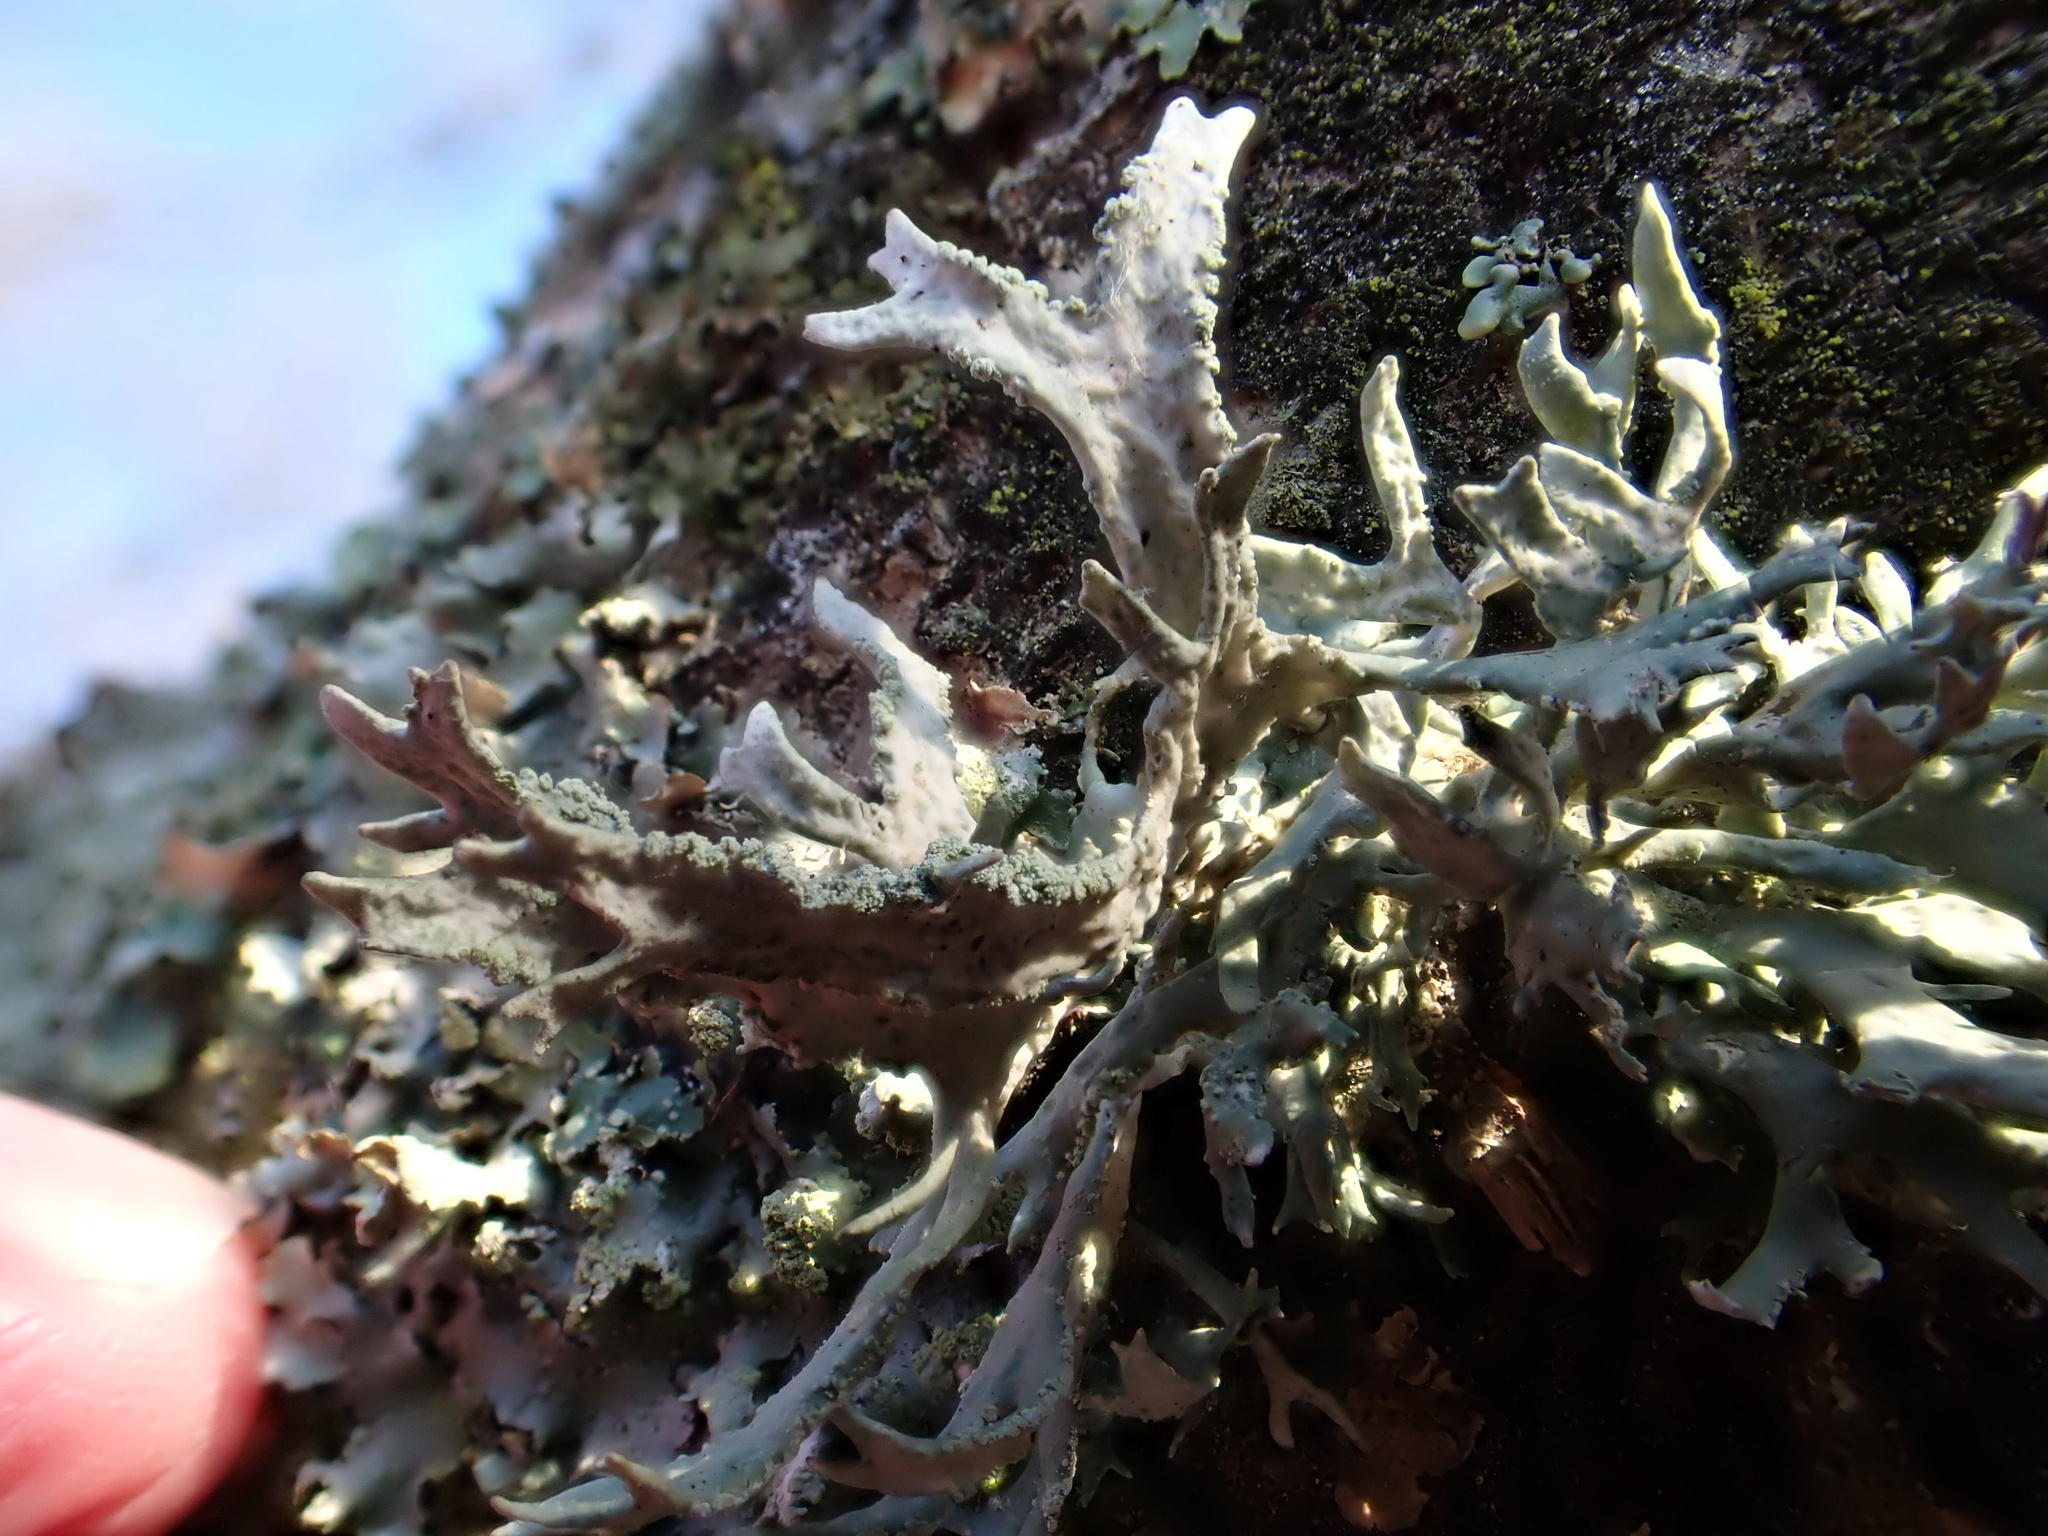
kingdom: Fungi
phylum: Ascomycota
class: Lecanoromycetes
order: Lecanorales
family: Parmeliaceae
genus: Evernia
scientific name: Evernia prunastri
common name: Oak moss
